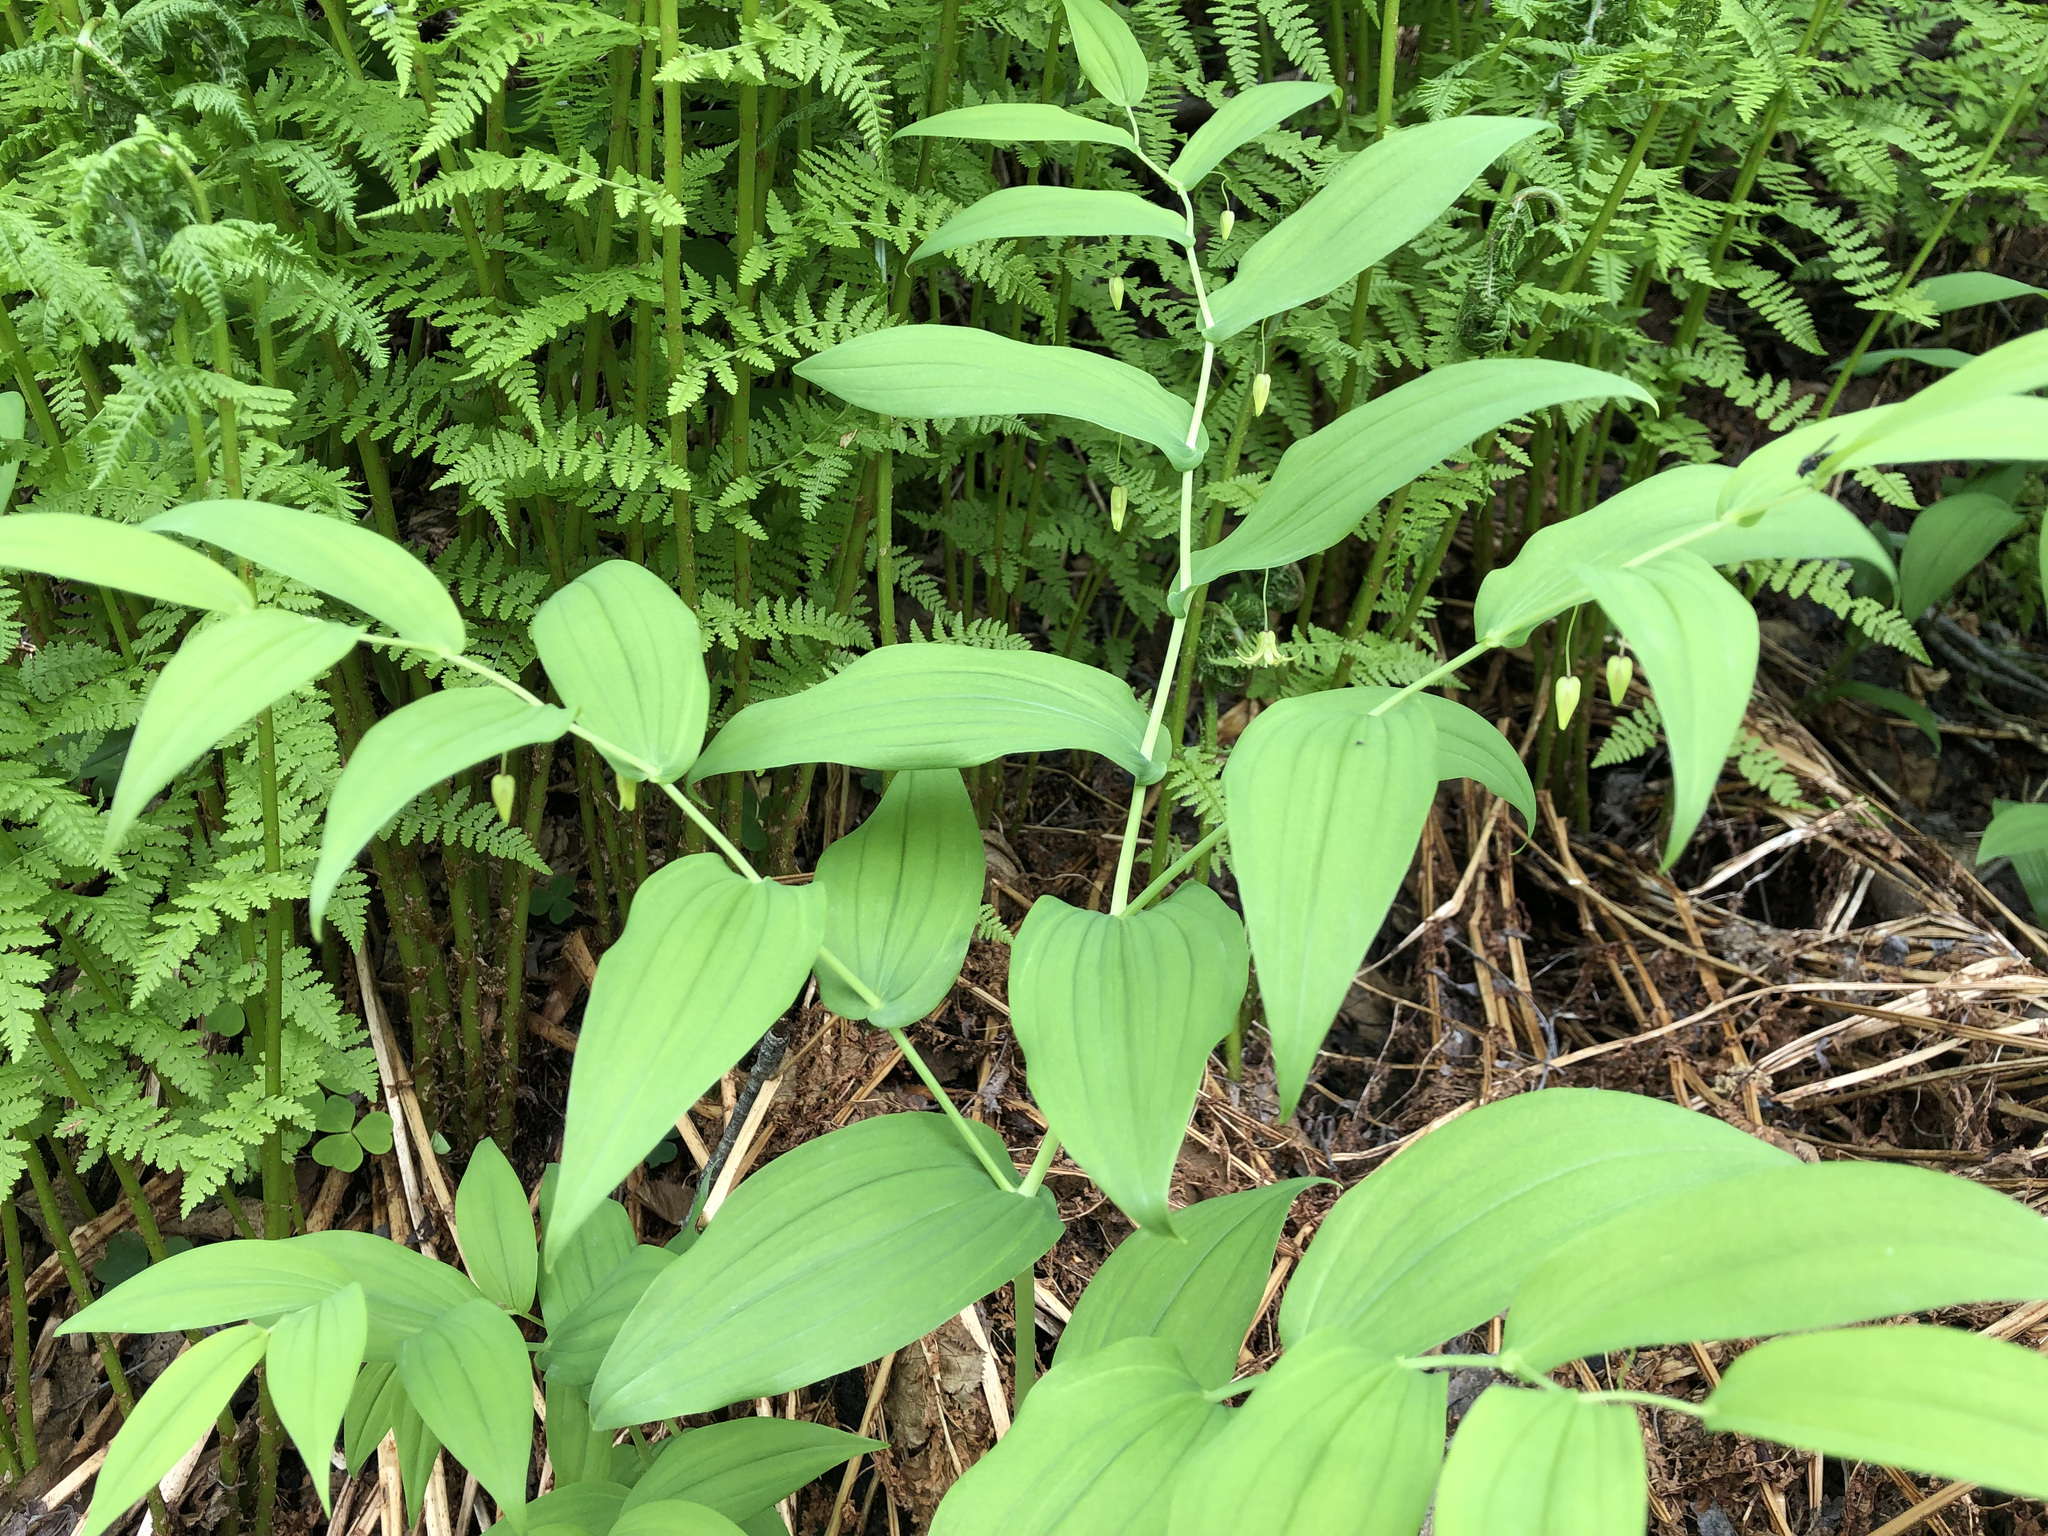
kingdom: Plantae
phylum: Tracheophyta
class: Liliopsida
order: Liliales
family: Liliaceae
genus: Streptopus
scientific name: Streptopus amplexifolius
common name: Clasp twisted stalk
